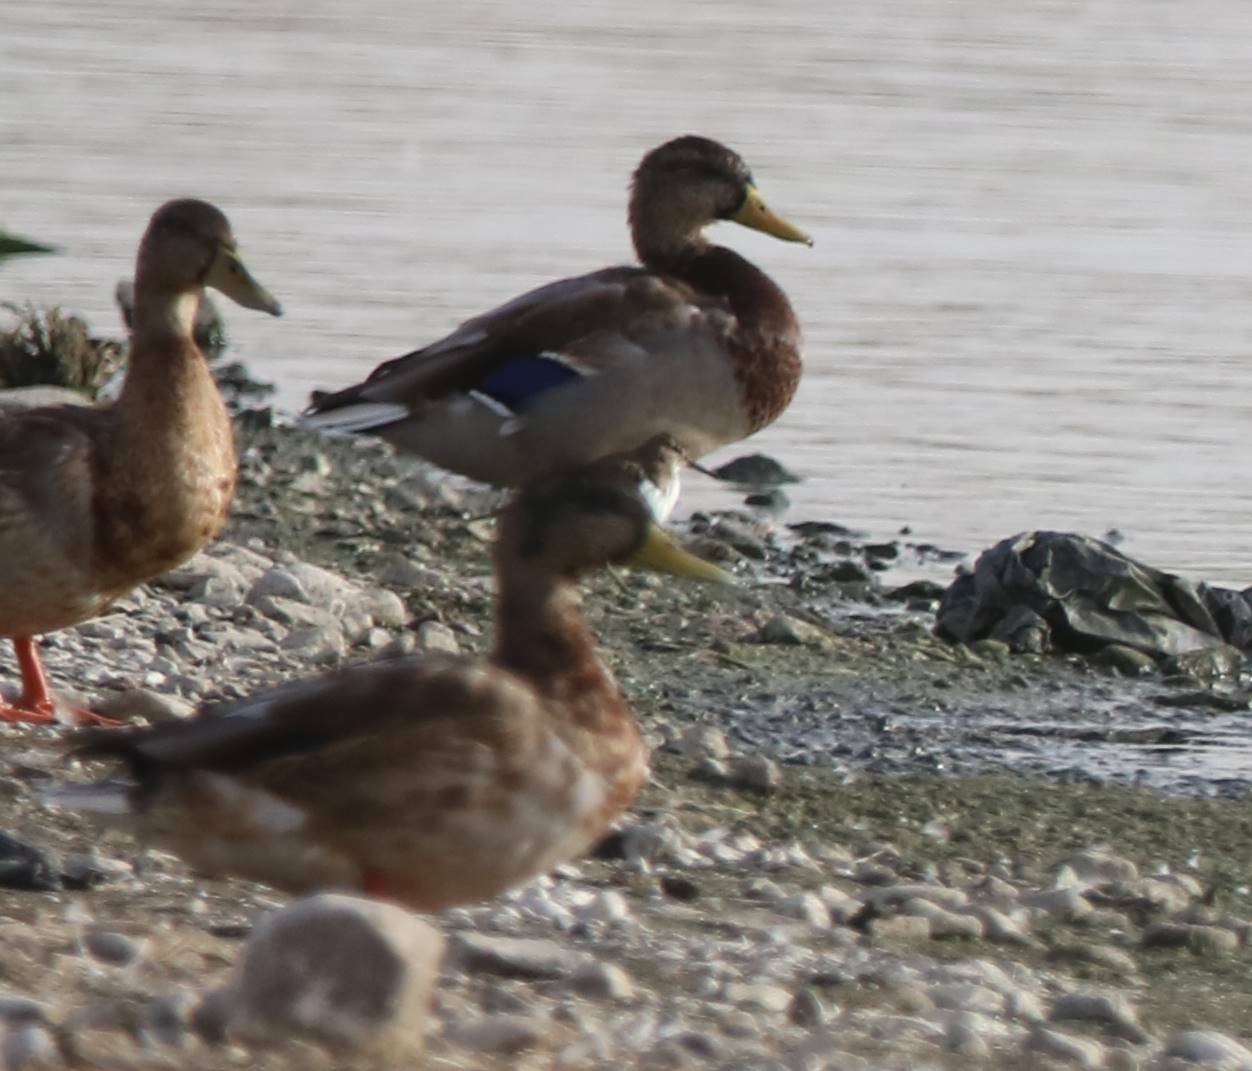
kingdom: Animalia
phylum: Chordata
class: Aves
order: Anseriformes
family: Anatidae
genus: Anas
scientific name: Anas platyrhynchos
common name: Mallard
